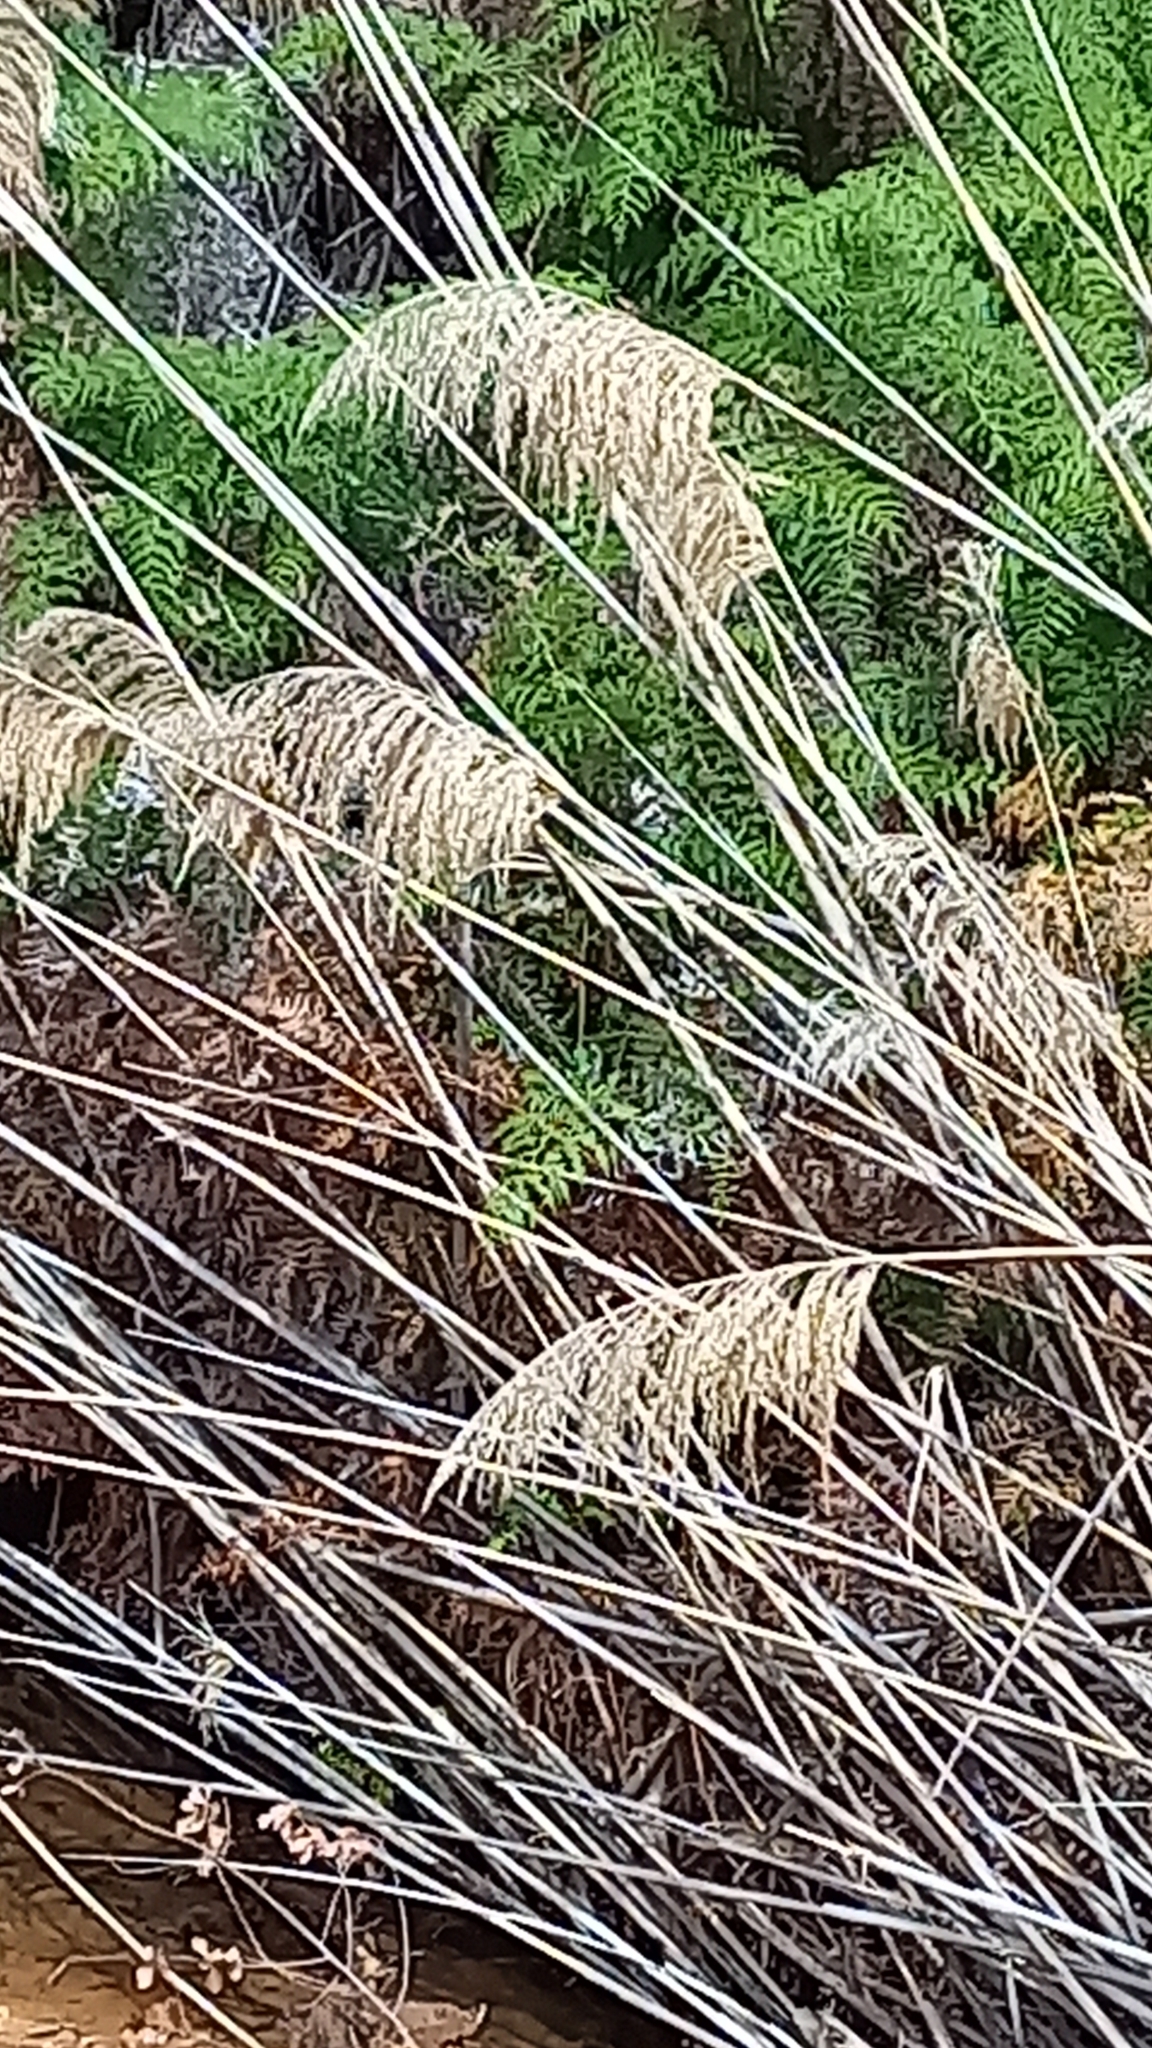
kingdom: Plantae
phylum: Tracheophyta
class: Liliopsida
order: Poales
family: Poaceae
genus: Phragmites
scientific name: Phragmites australis
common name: Common reed
